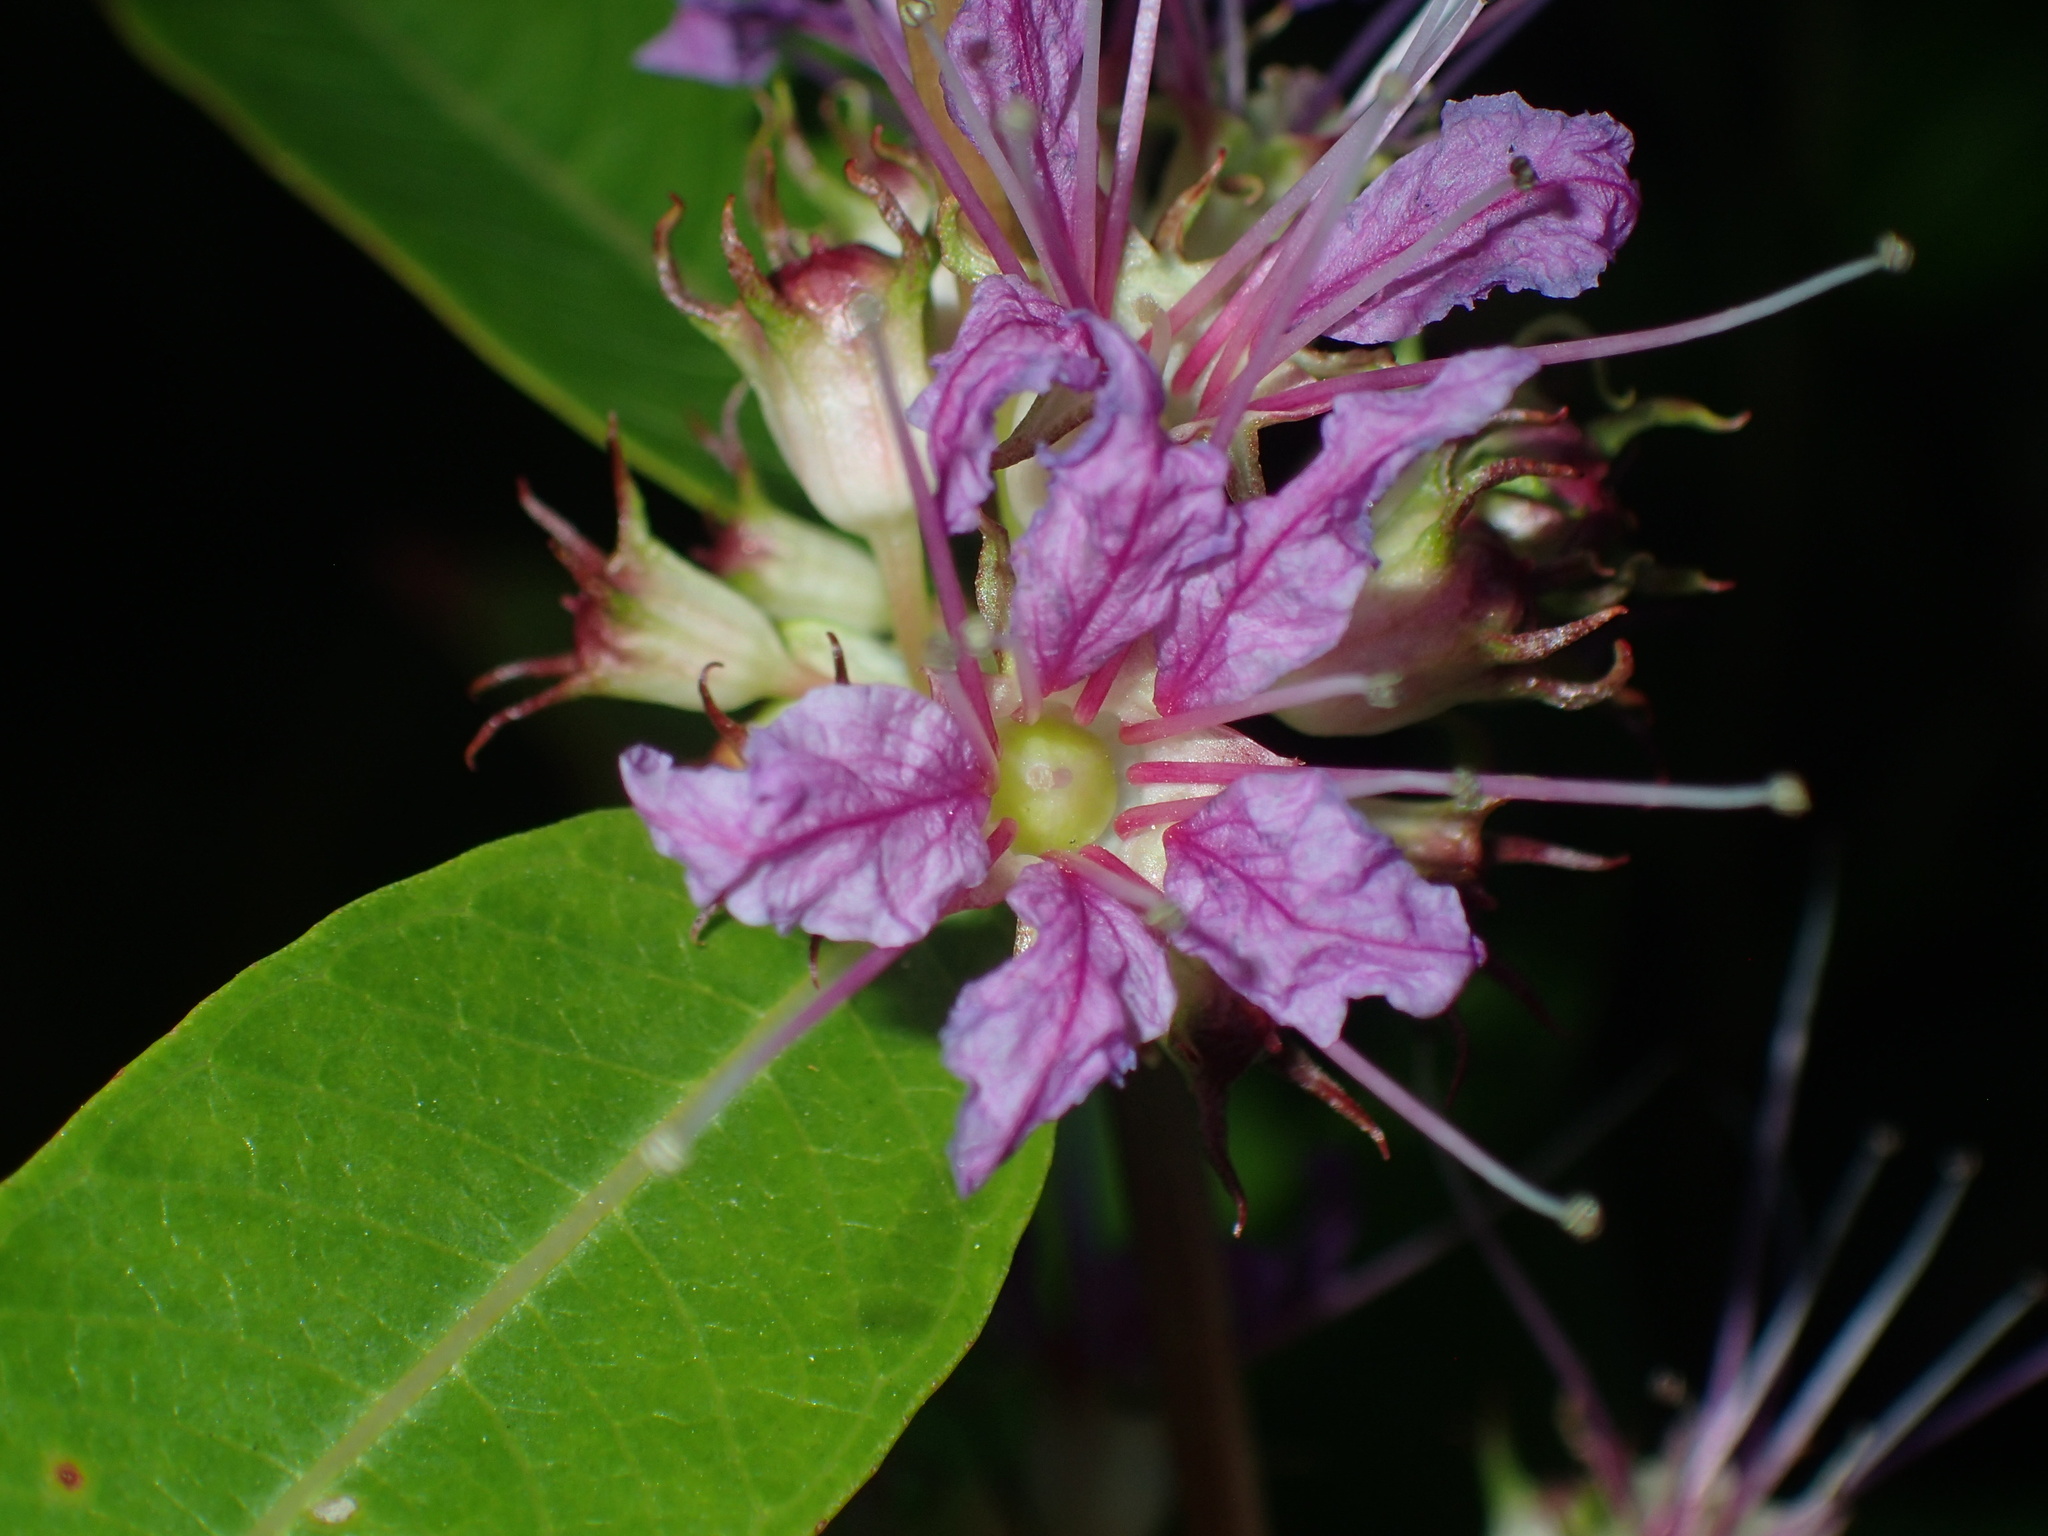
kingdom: Plantae
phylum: Tracheophyta
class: Magnoliopsida
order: Myrtales
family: Lythraceae
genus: Decodon
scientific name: Decodon verticillatus
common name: Hairy swamp loosestrife
